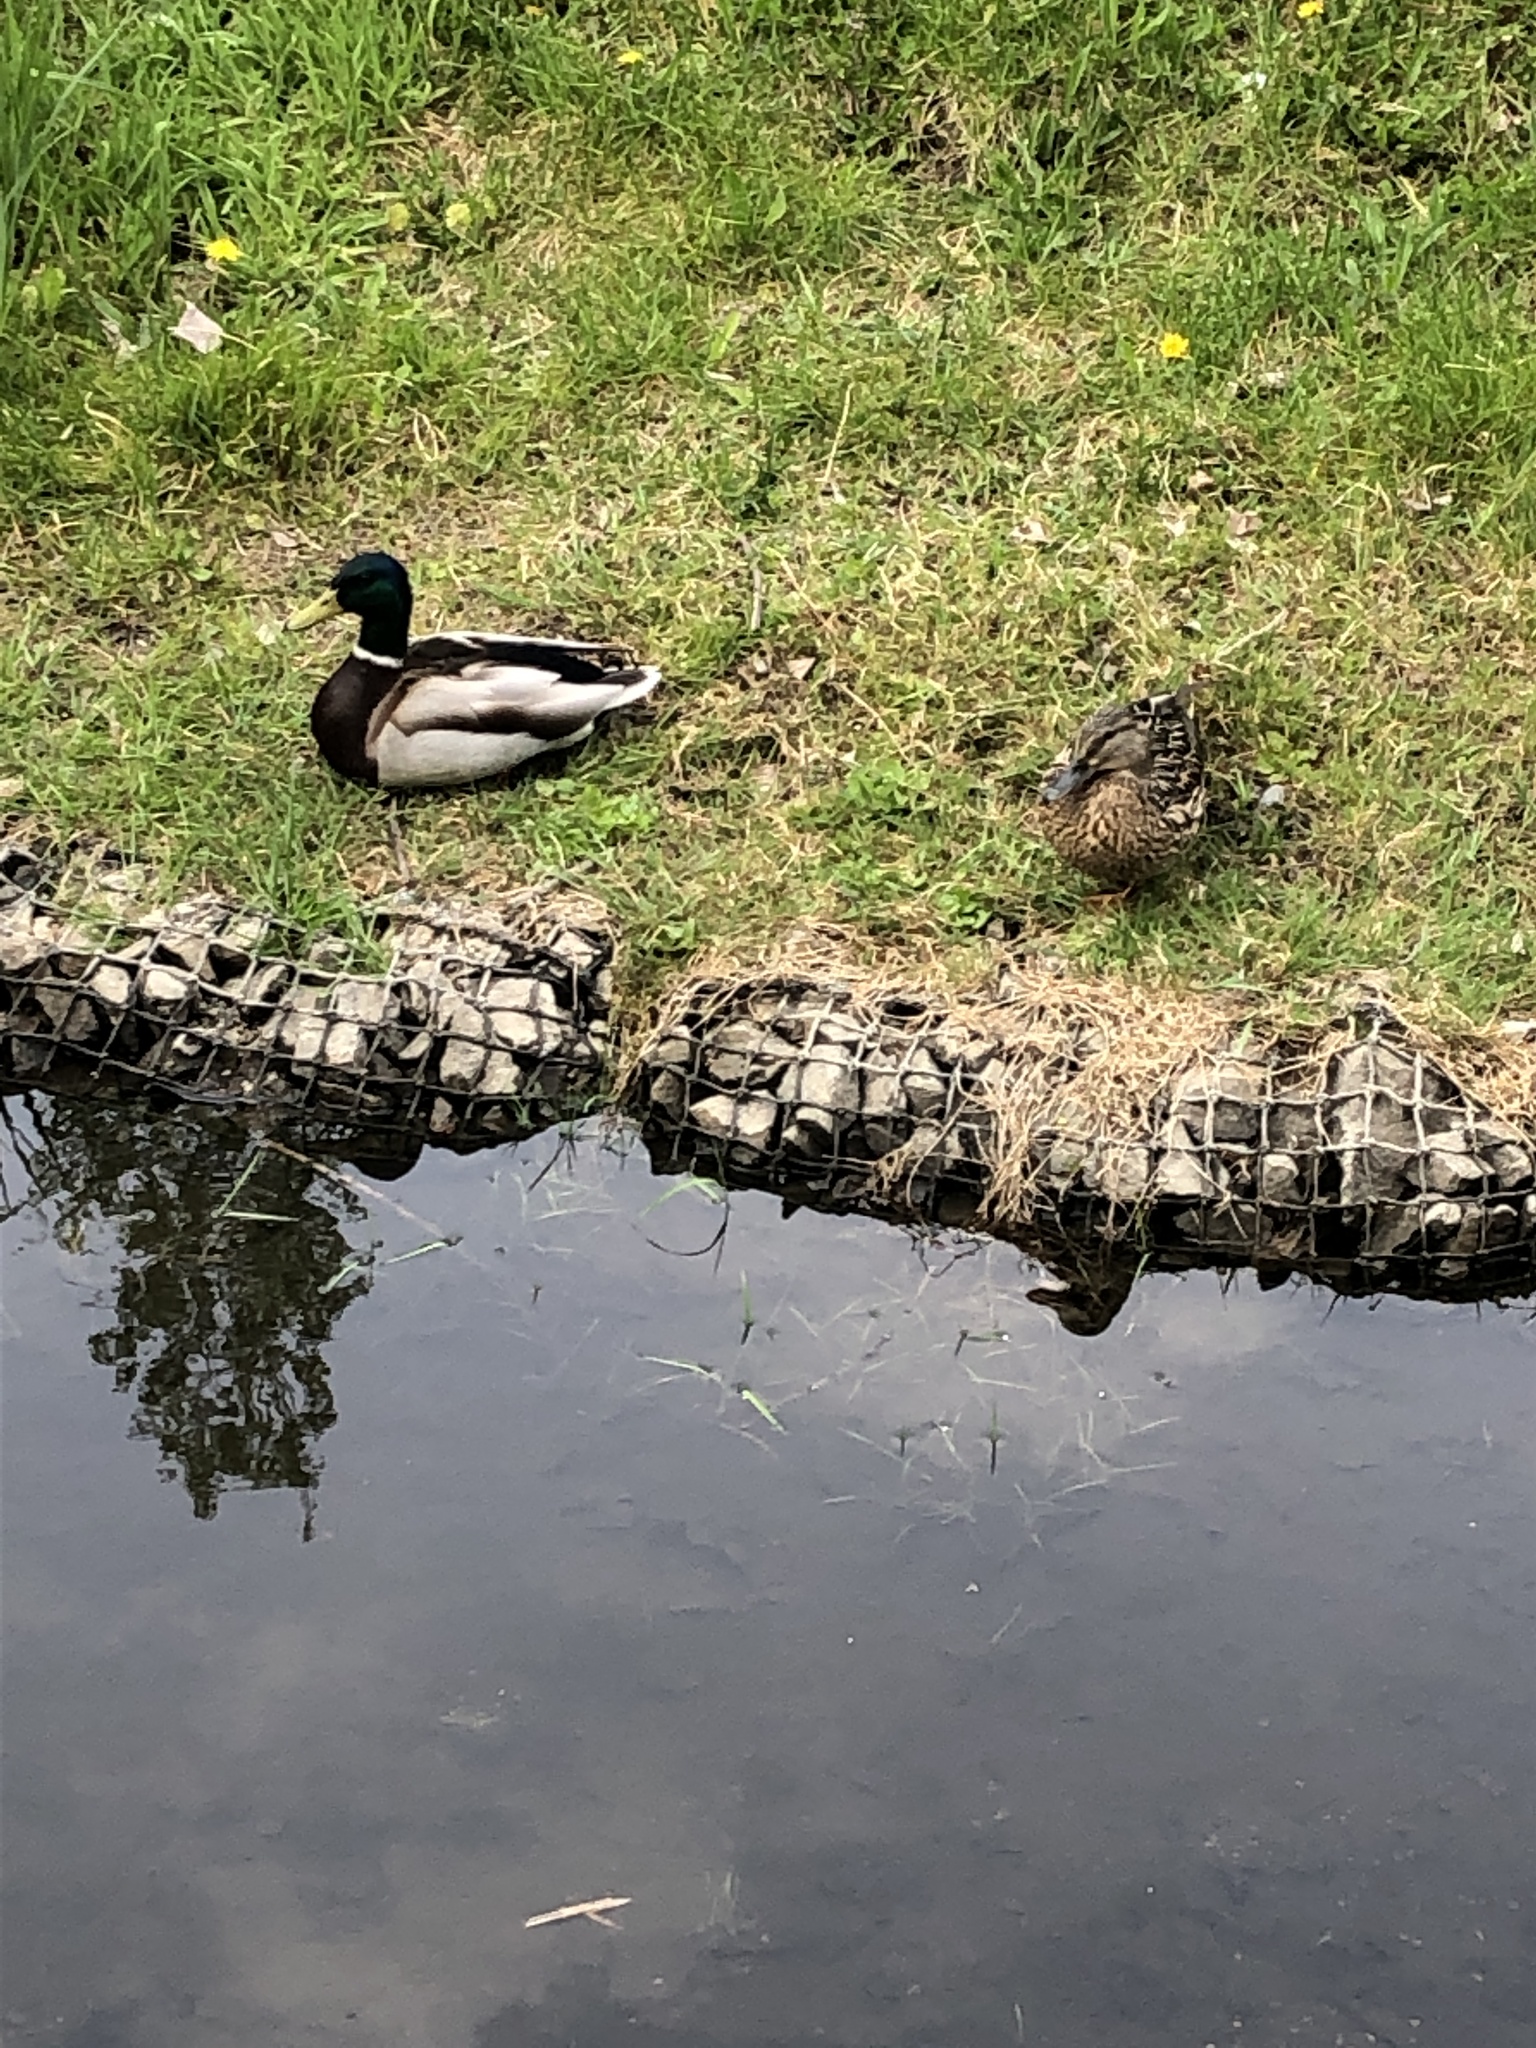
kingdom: Animalia
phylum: Chordata
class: Aves
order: Anseriformes
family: Anatidae
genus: Anas
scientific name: Anas platyrhynchos
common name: Mallard
